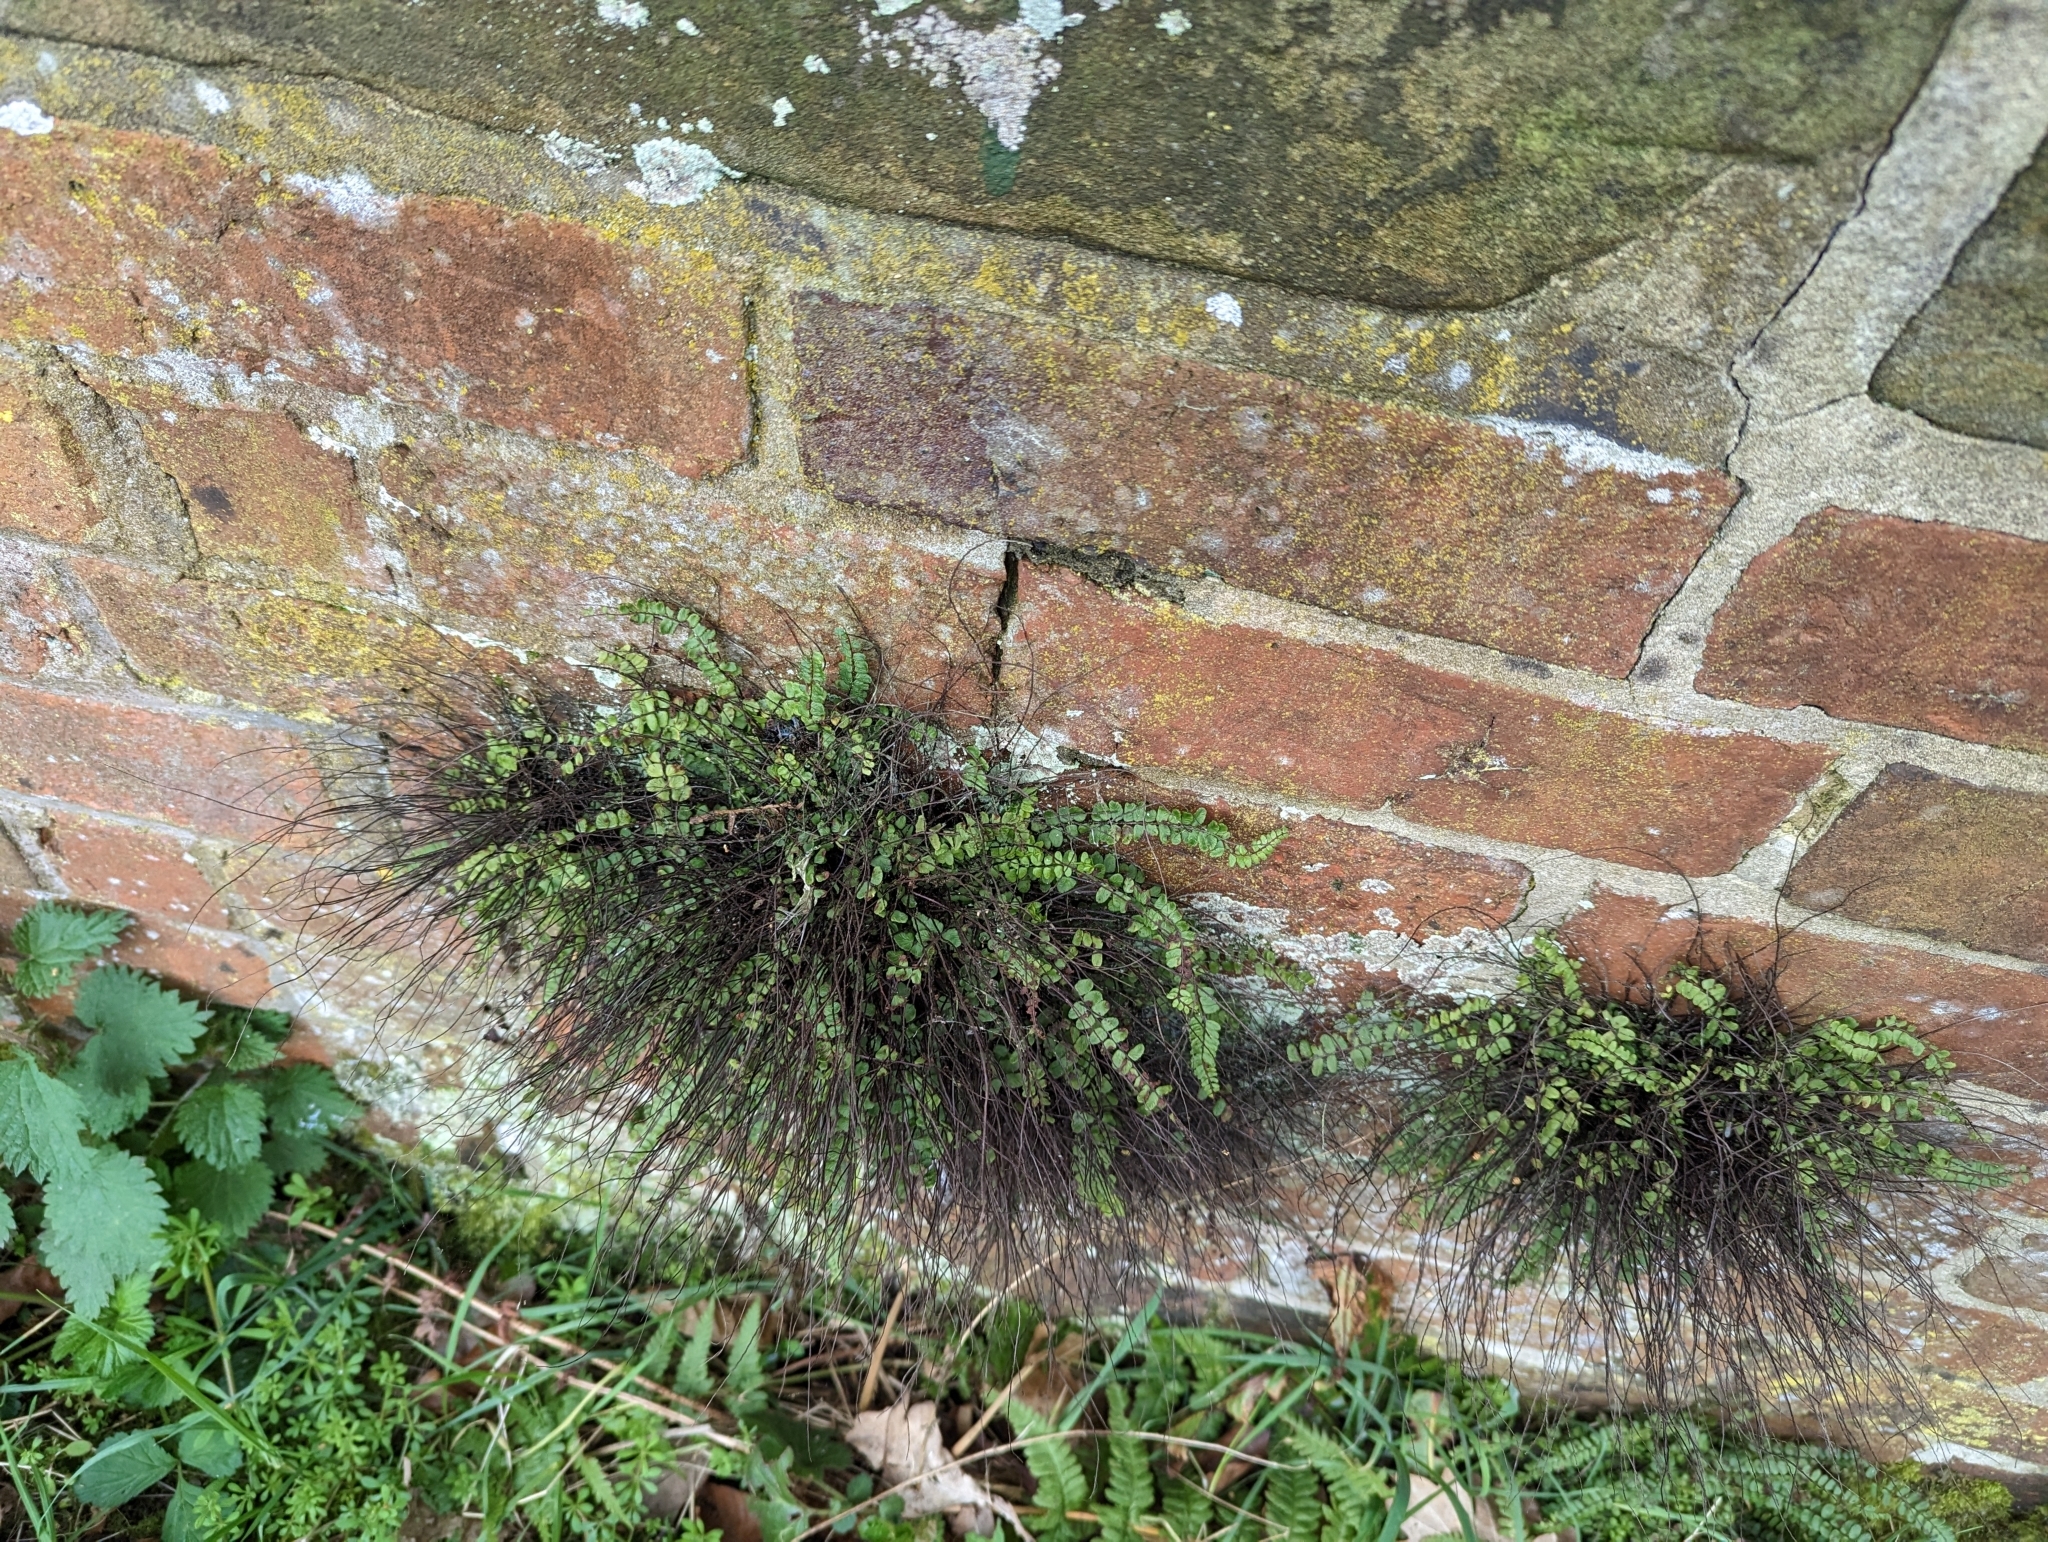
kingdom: Plantae
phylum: Tracheophyta
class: Polypodiopsida
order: Polypodiales
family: Aspleniaceae
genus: Asplenium
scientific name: Asplenium trichomanes
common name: Maidenhair spleenwort
